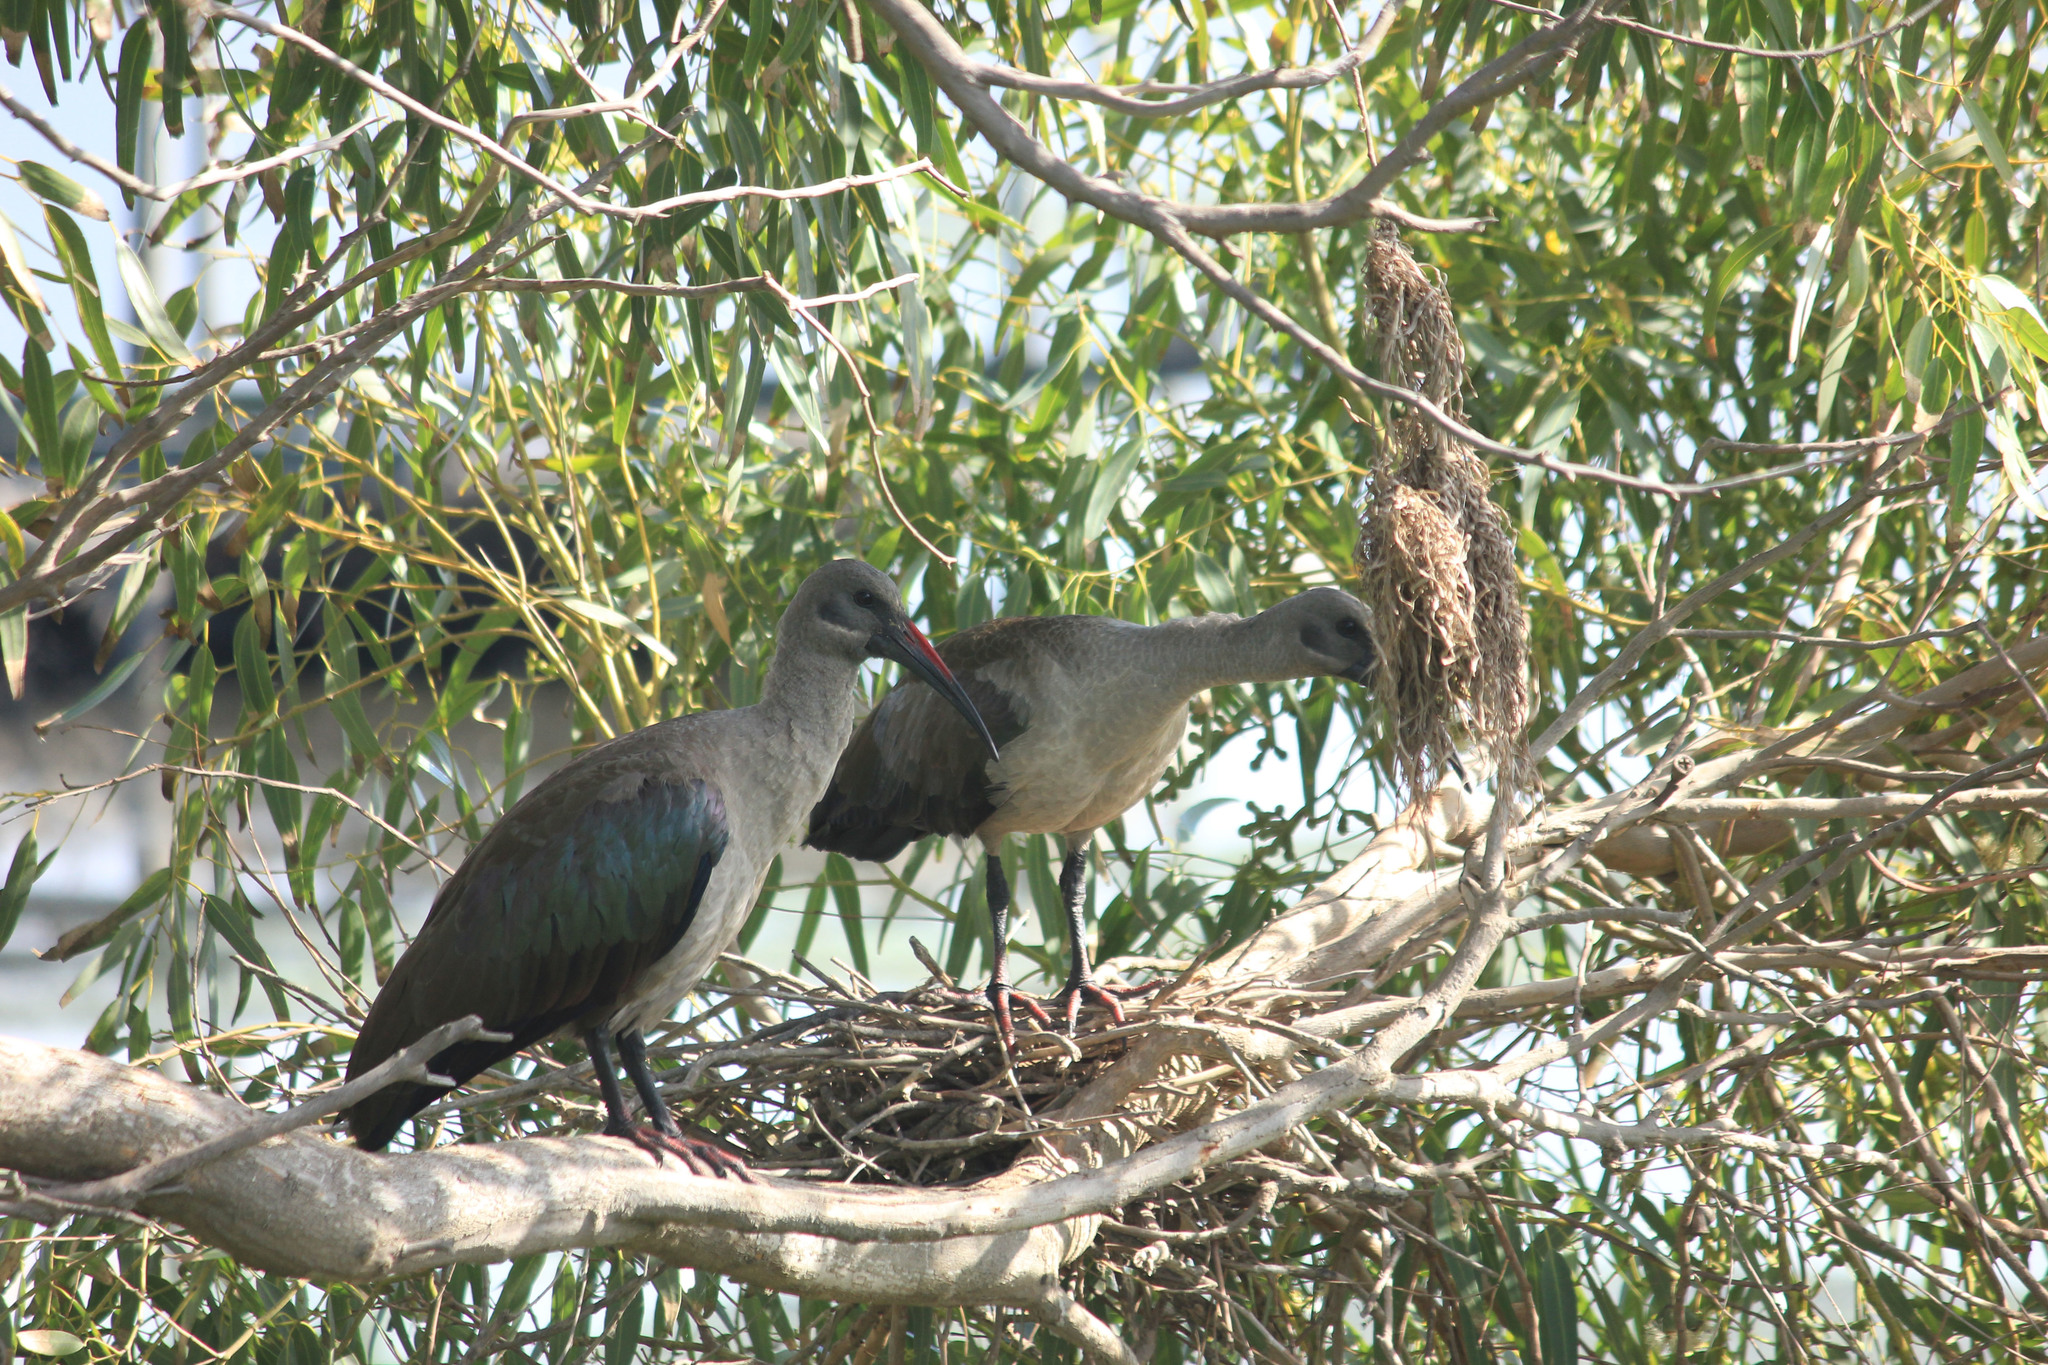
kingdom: Animalia
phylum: Chordata
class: Aves
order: Pelecaniformes
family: Threskiornithidae
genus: Bostrychia
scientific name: Bostrychia hagedash
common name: Hadada ibis
